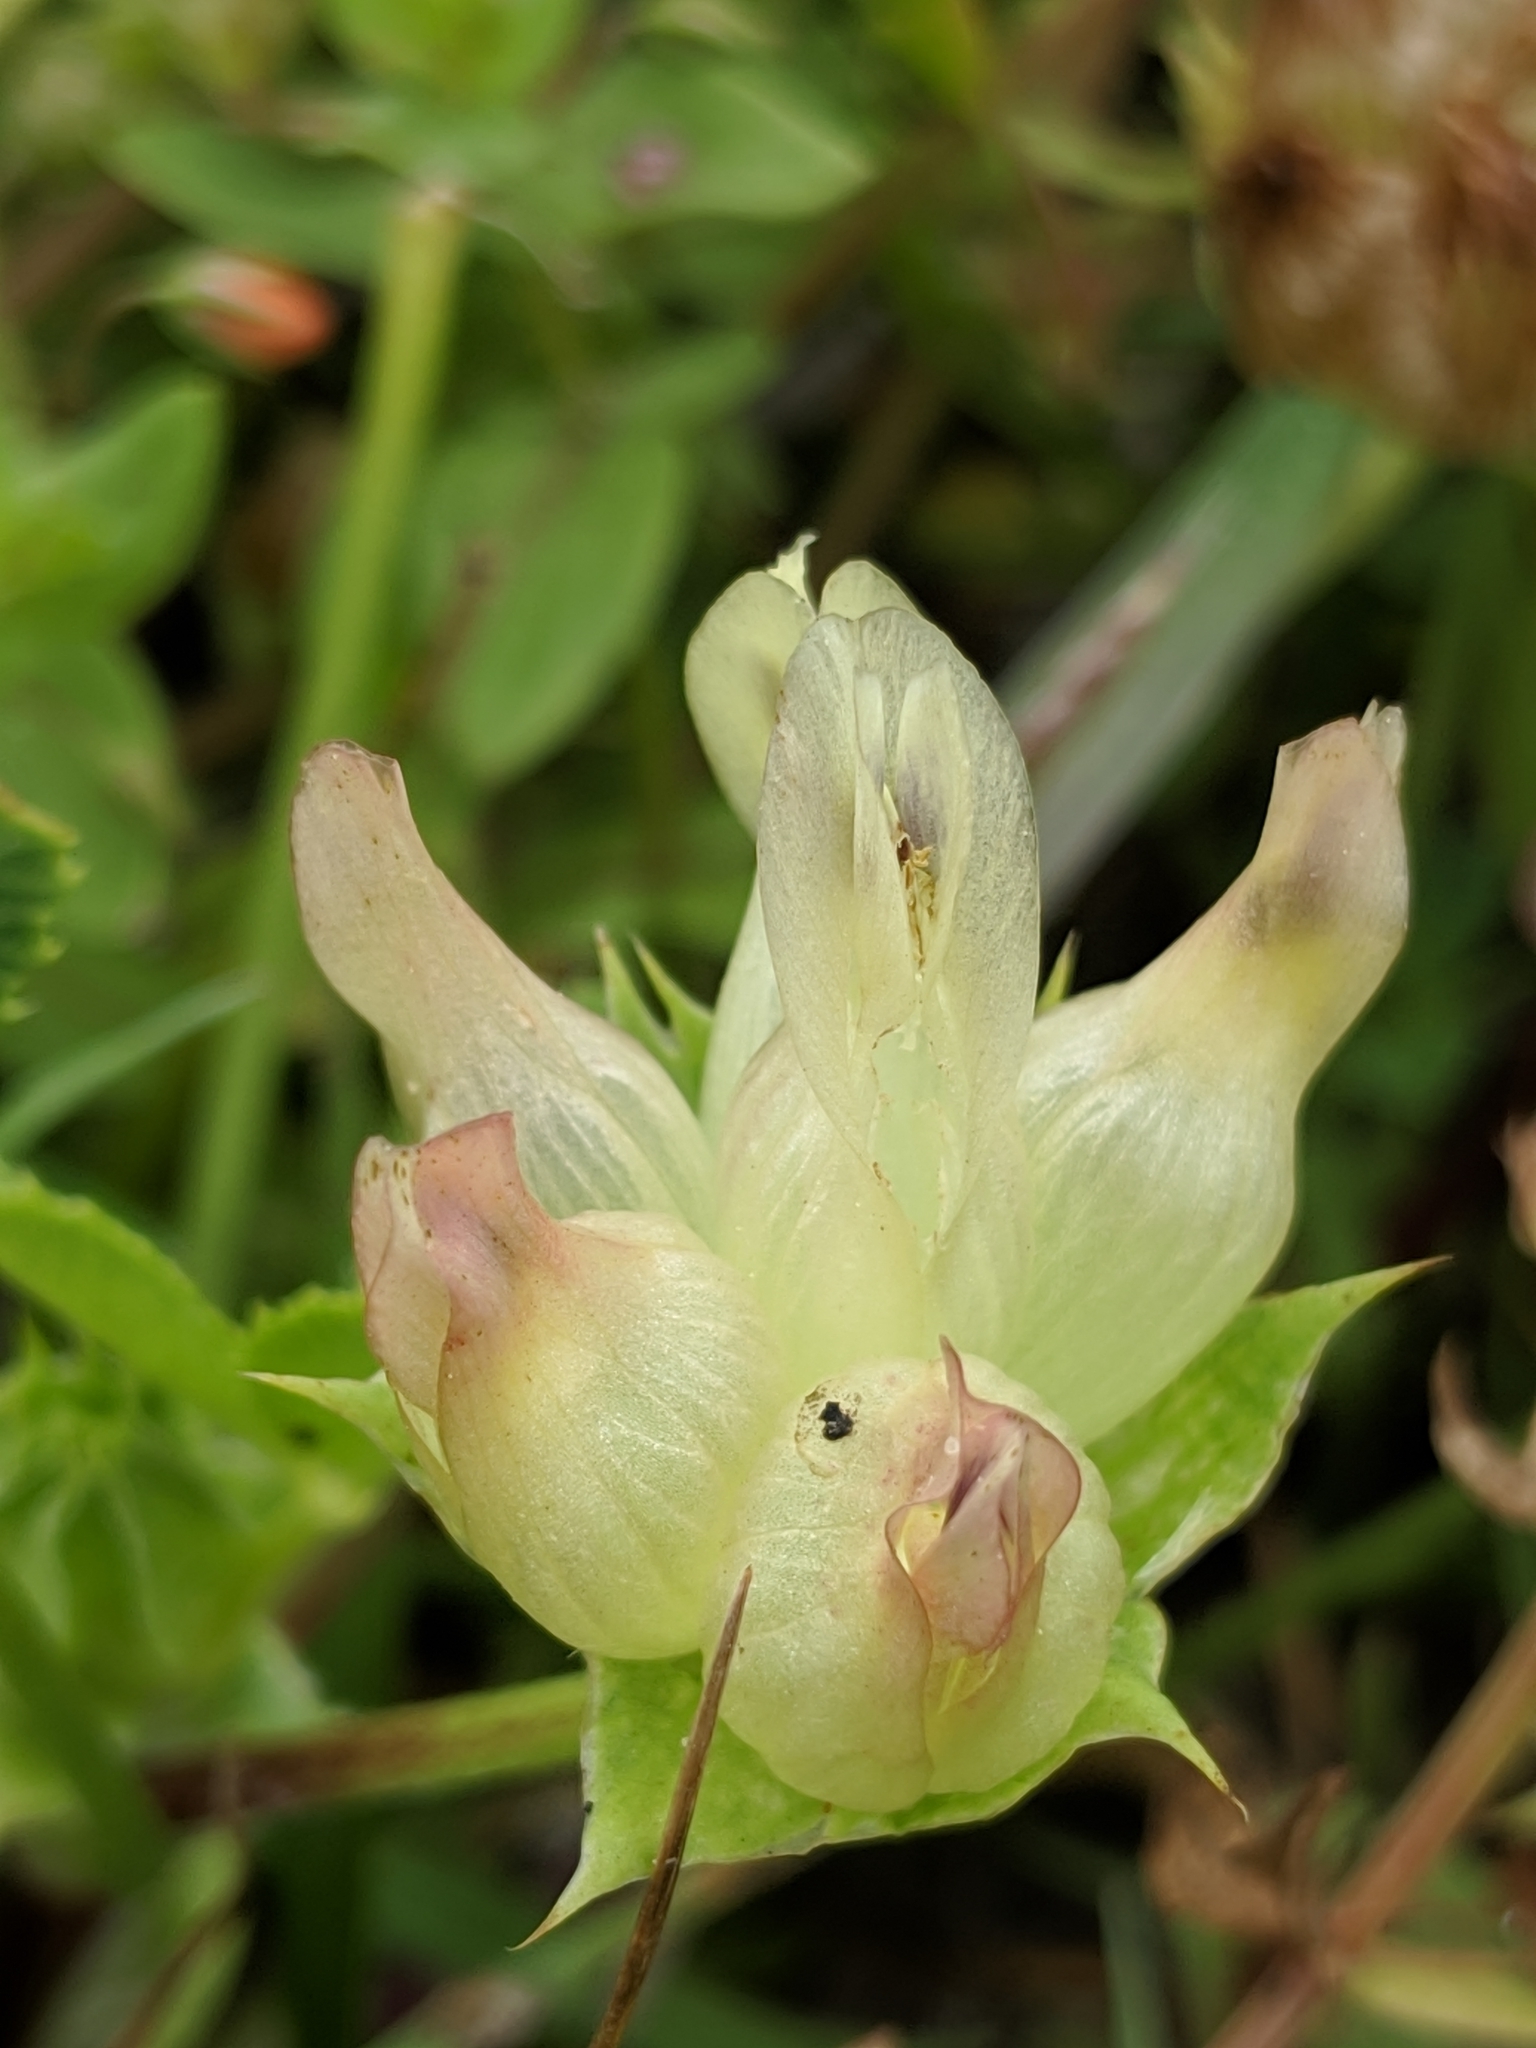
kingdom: Plantae
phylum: Tracheophyta
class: Magnoliopsida
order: Fabales
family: Fabaceae
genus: Trifolium
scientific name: Trifolium fucatum
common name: Puff clover
